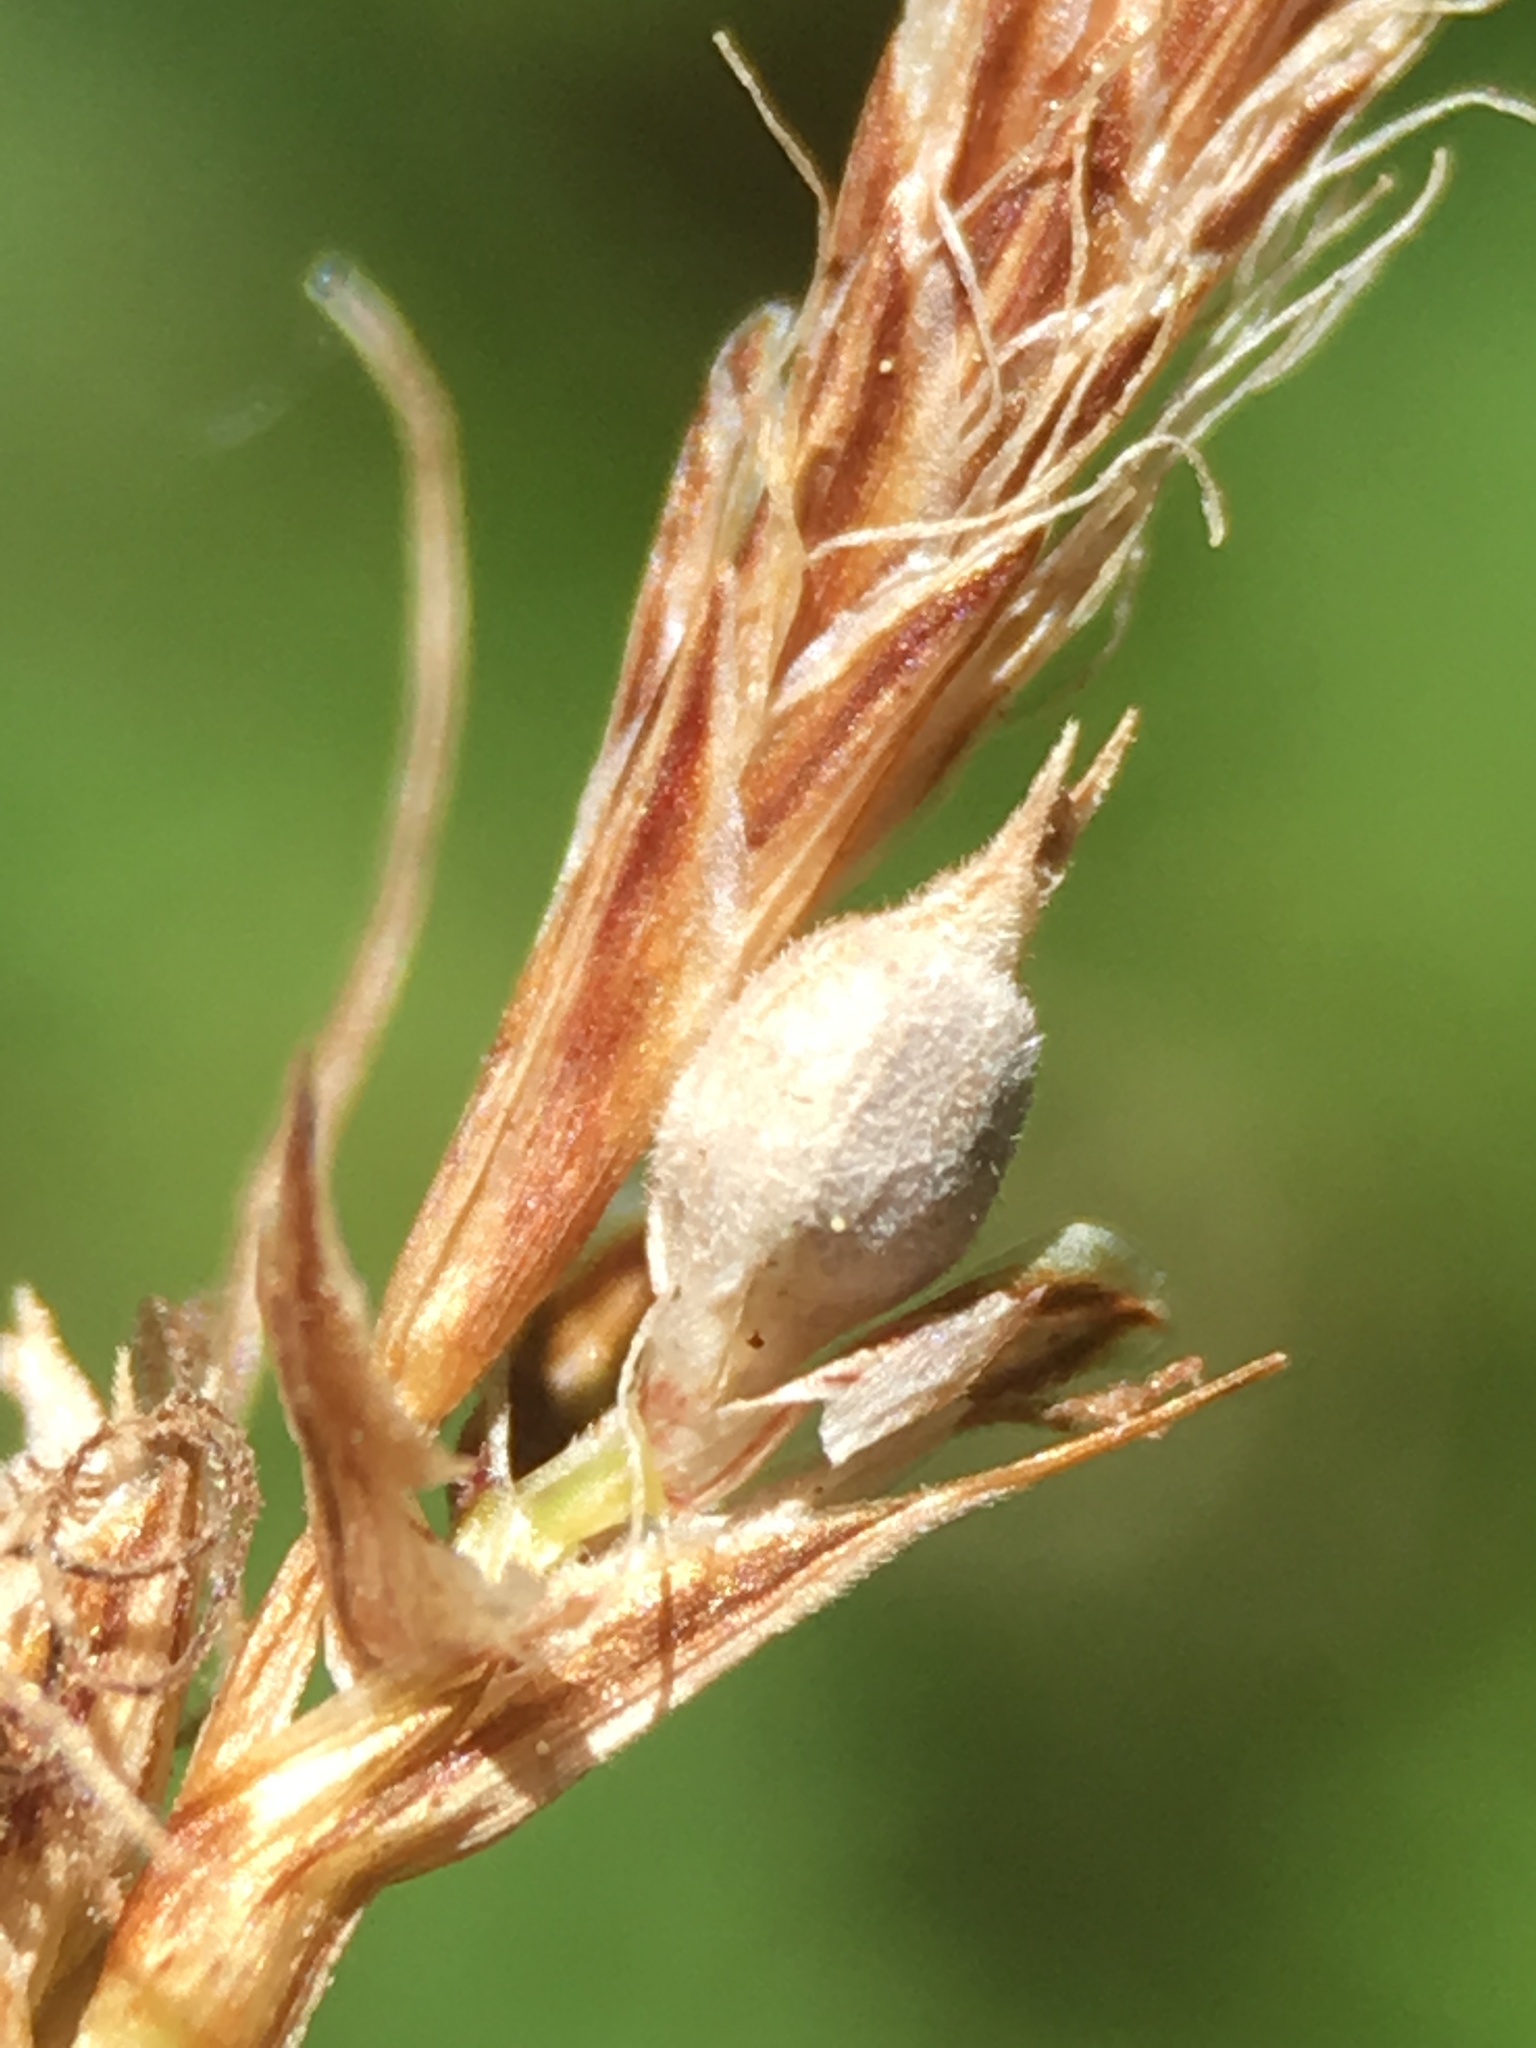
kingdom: Plantae
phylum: Tracheophyta
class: Liliopsida
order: Poales
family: Cyperaceae
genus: Carex
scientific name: Carex inops
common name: Long-stolon sedge
